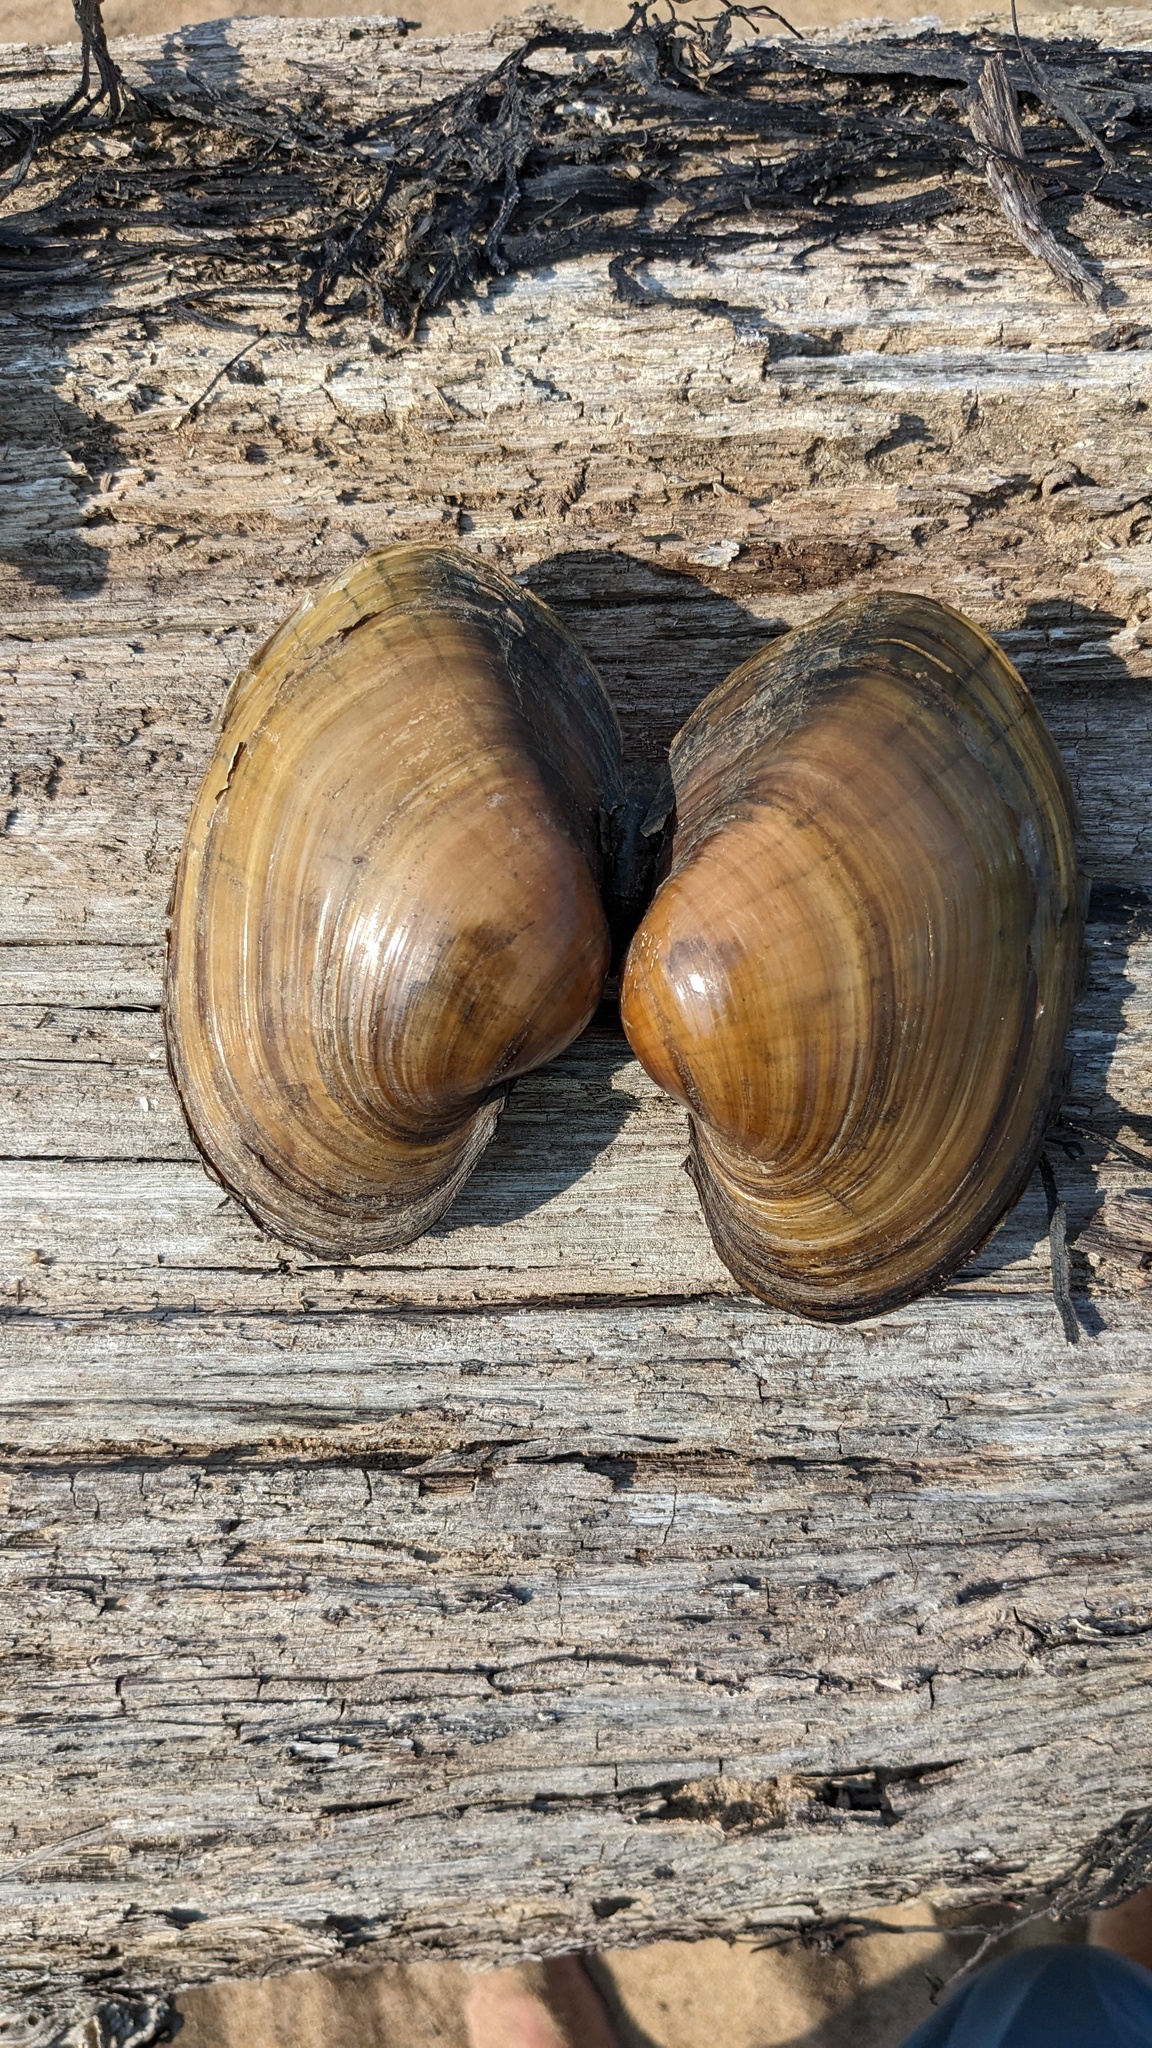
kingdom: Animalia
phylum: Mollusca
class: Bivalvia
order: Unionida
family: Unionidae
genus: Lampsilis
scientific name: Lampsilis cardium
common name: Plain pocketbook
